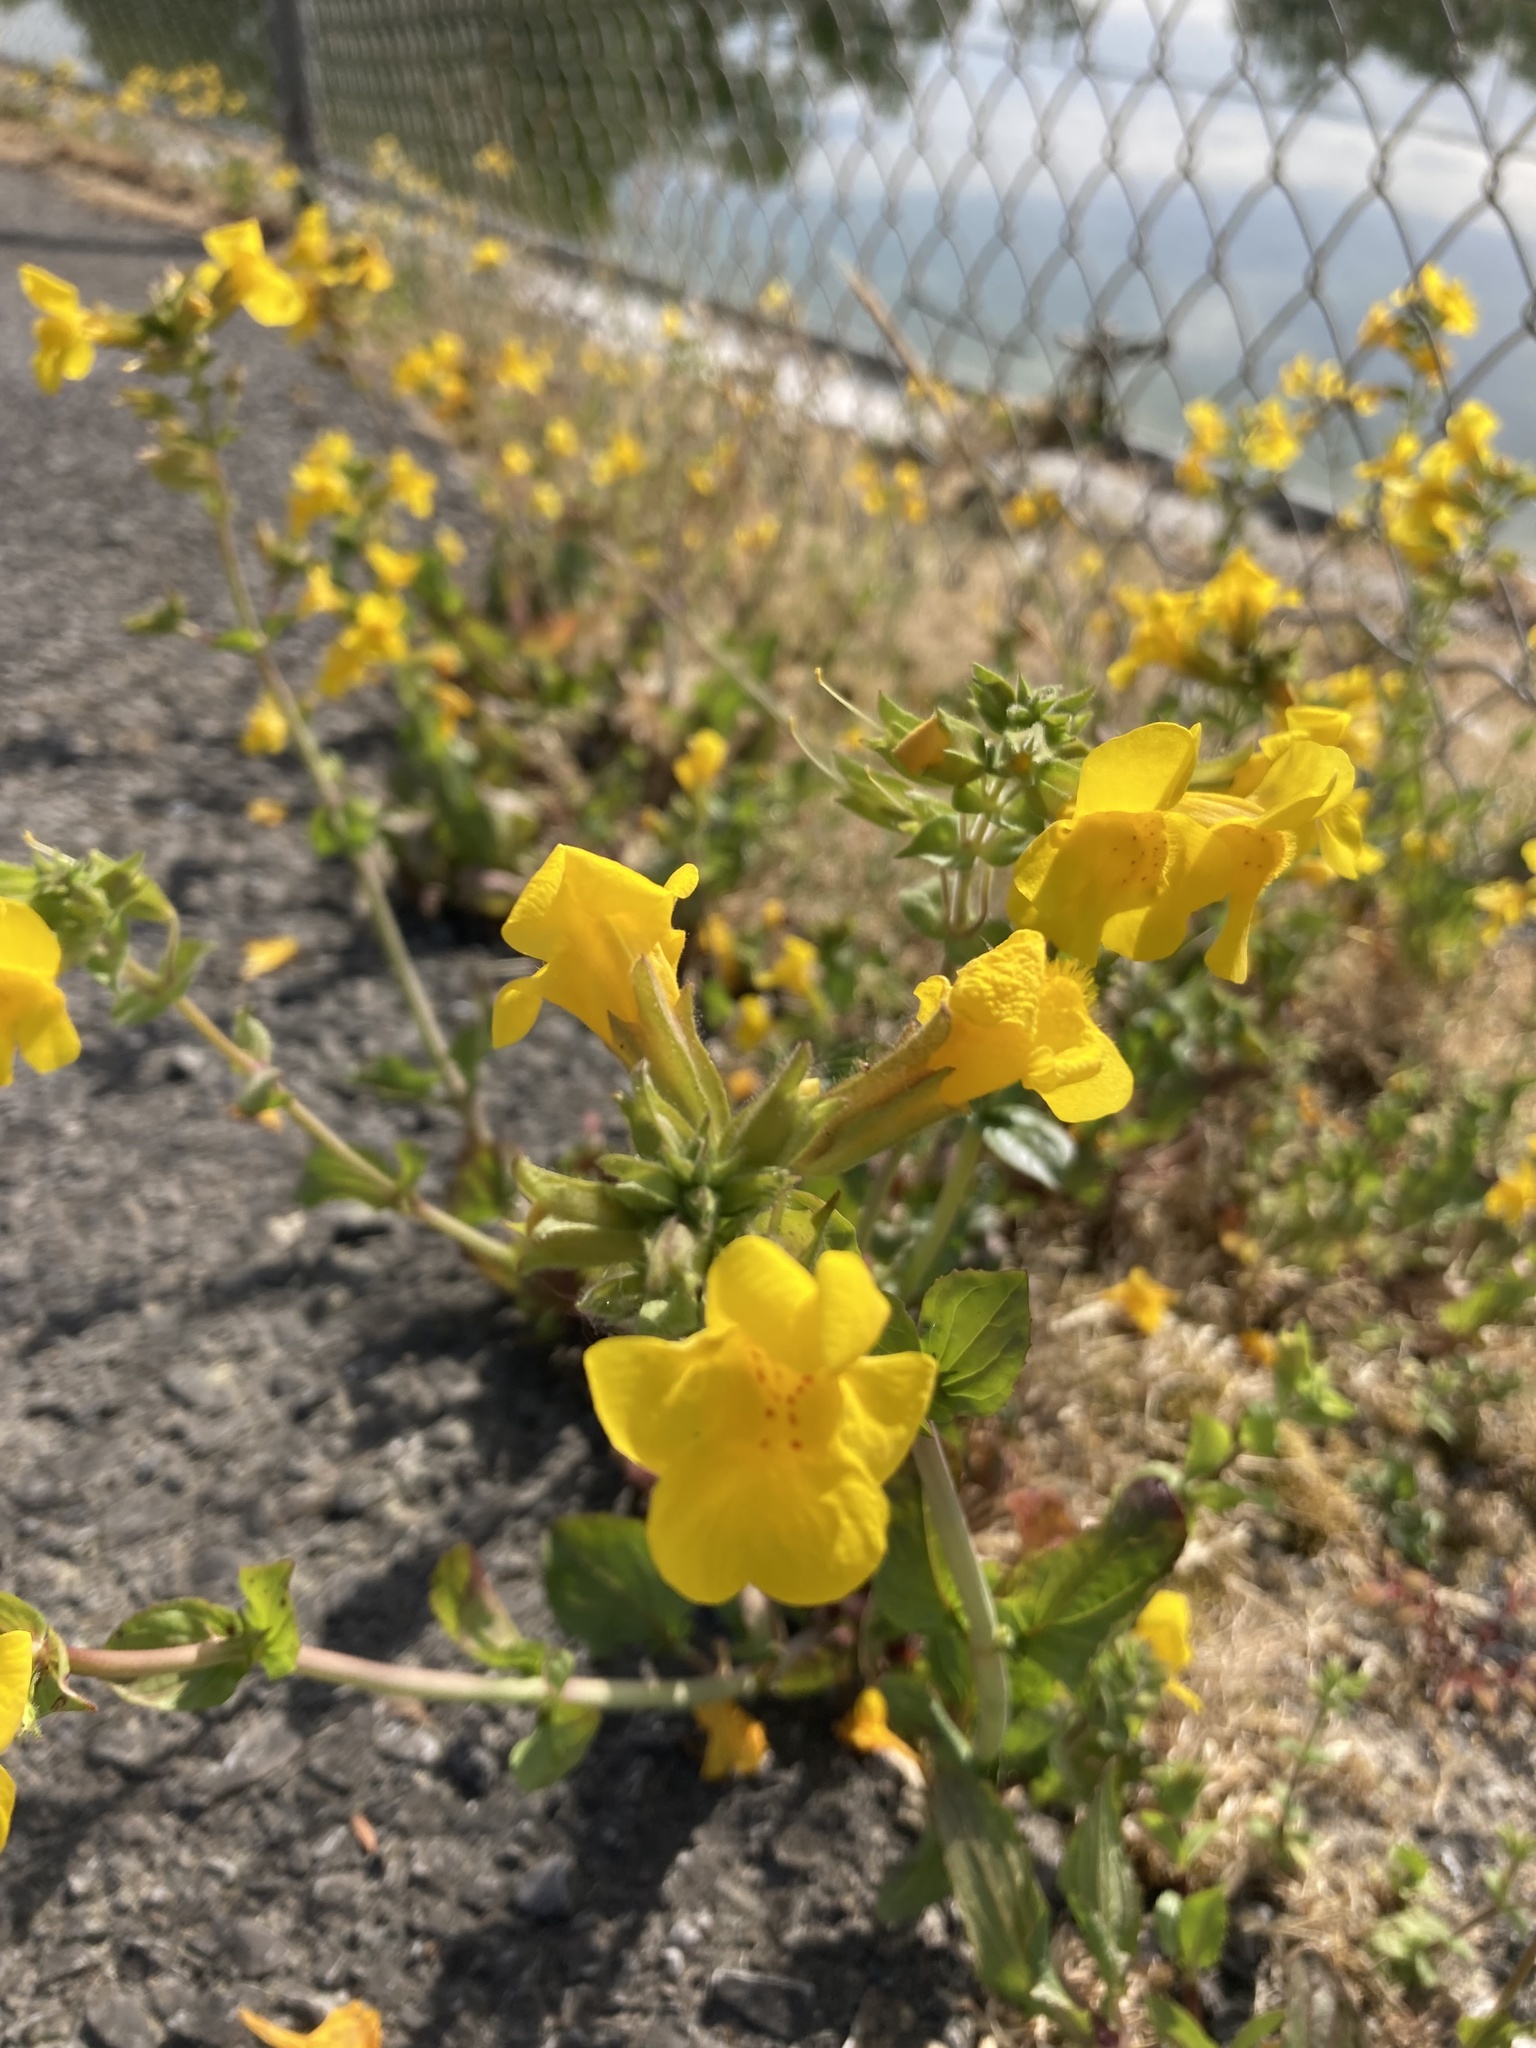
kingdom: Plantae
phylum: Tracheophyta
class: Magnoliopsida
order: Lamiales
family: Phrymaceae
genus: Erythranthe
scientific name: Erythranthe guttata
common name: Monkeyflower
